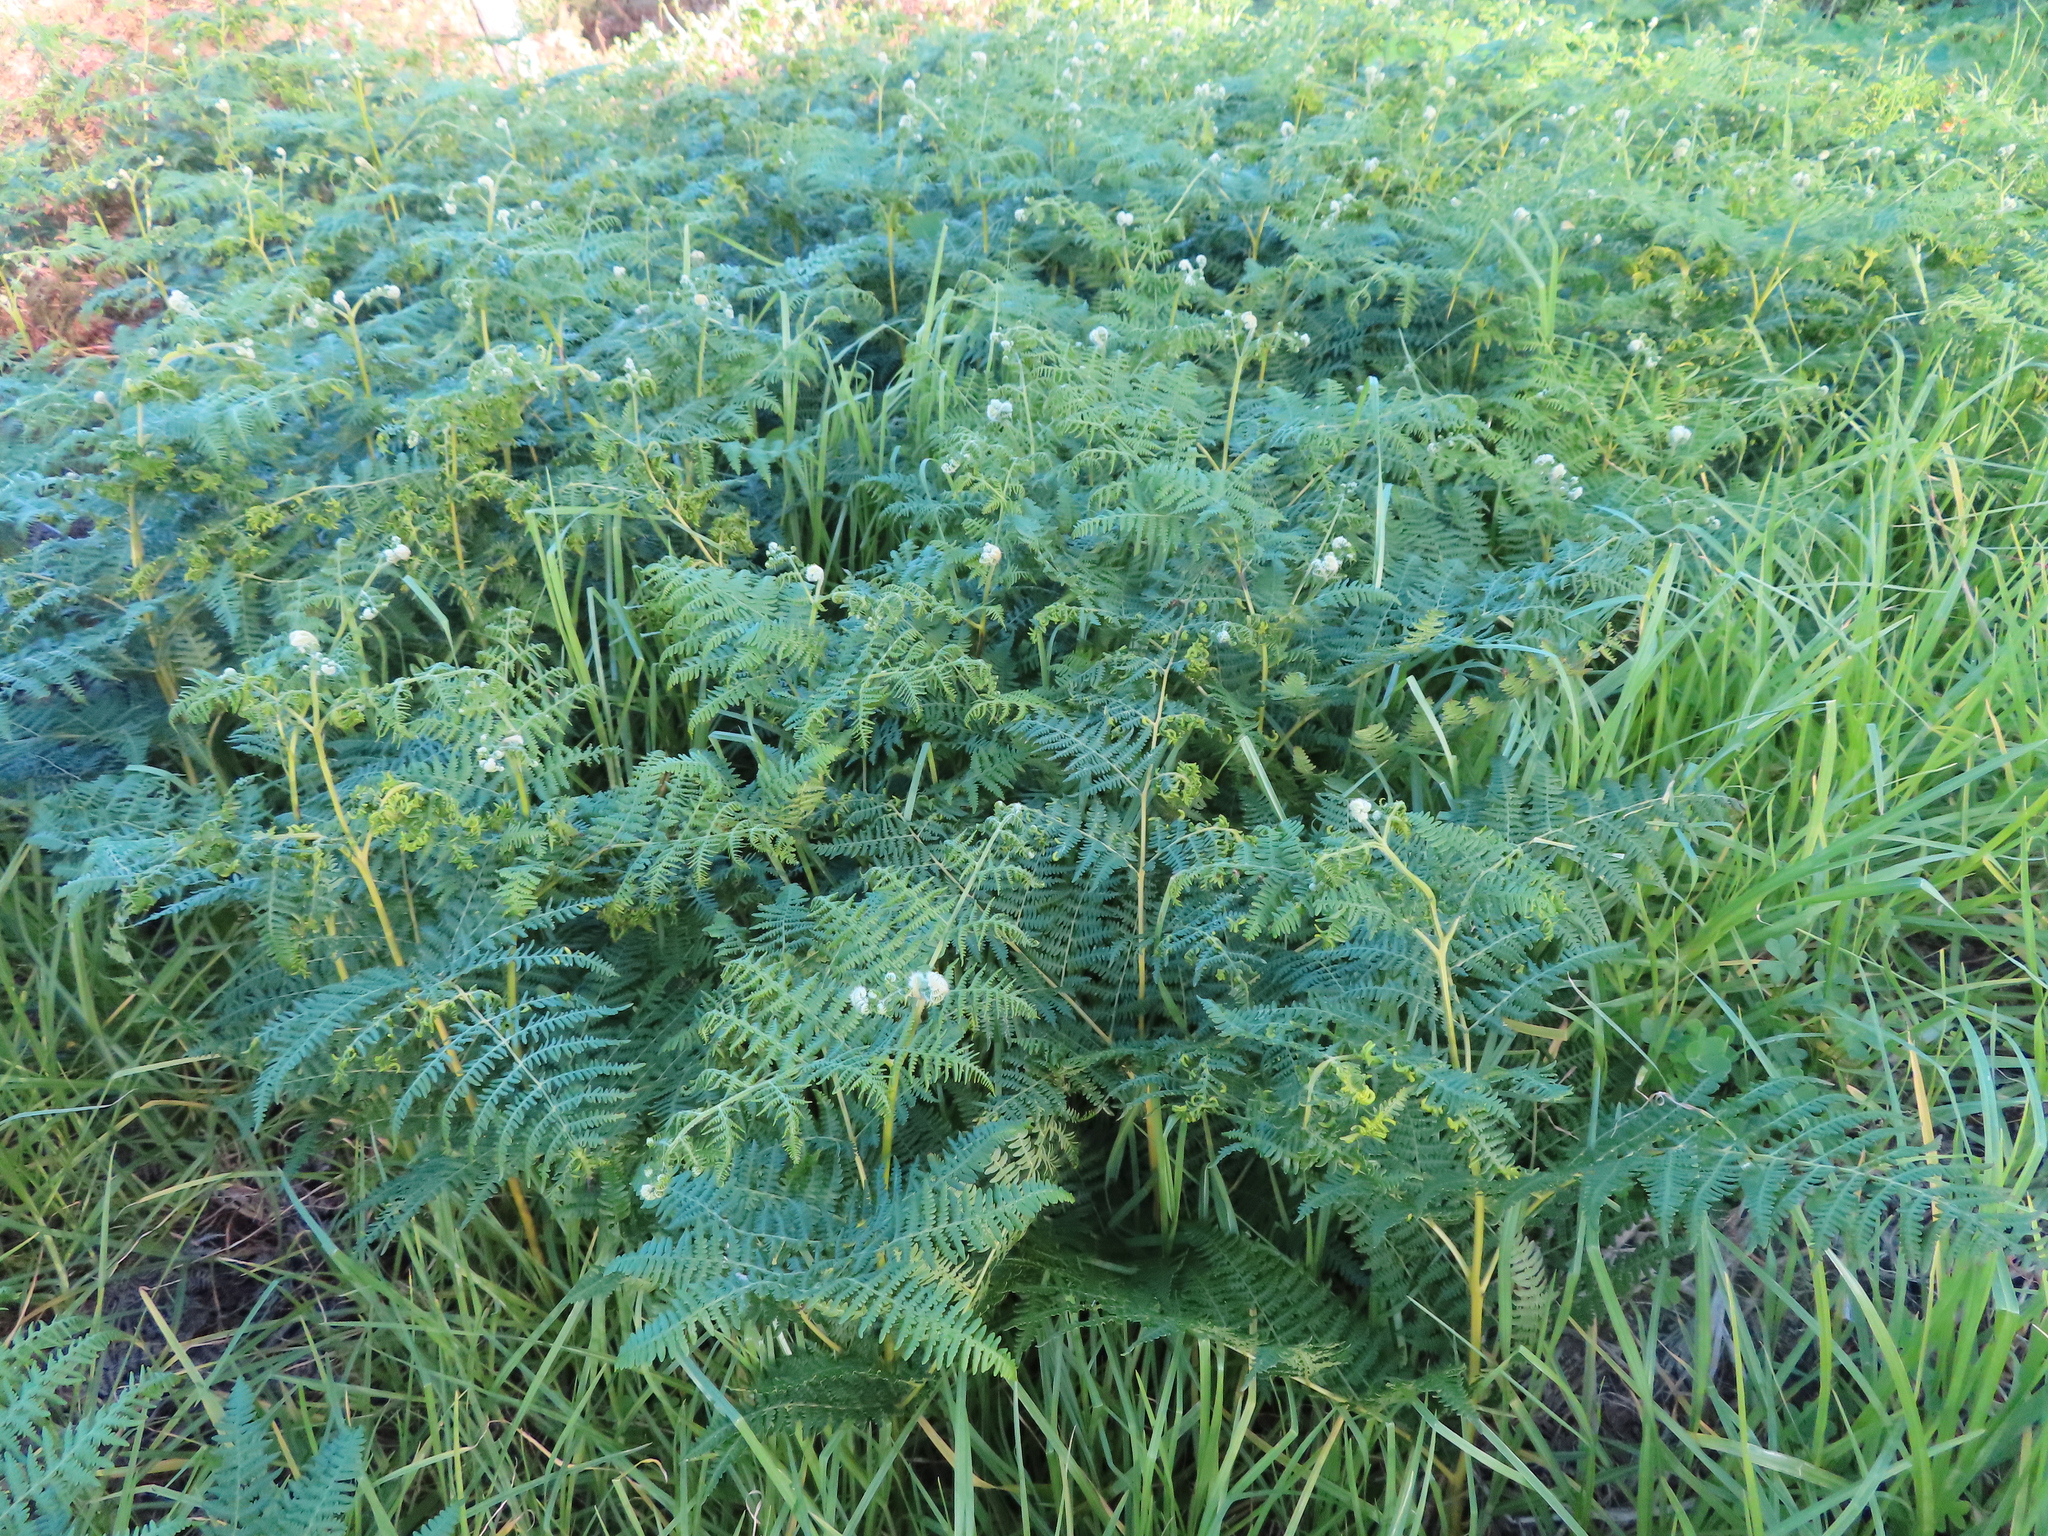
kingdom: Plantae
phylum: Tracheophyta
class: Polypodiopsida
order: Polypodiales
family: Dennstaedtiaceae
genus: Pteridium
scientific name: Pteridium aquilinum
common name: Bracken
